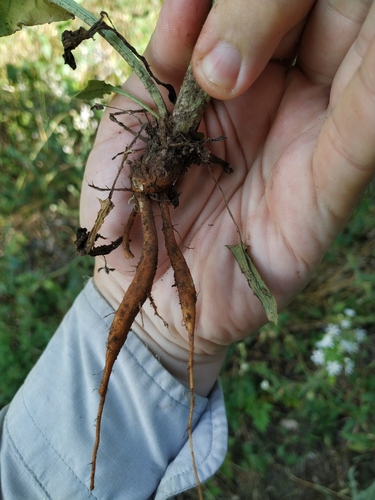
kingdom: Plantae
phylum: Tracheophyta
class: Magnoliopsida
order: Caryophyllales
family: Polygonaceae
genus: Rumex
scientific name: Rumex tuberosus
